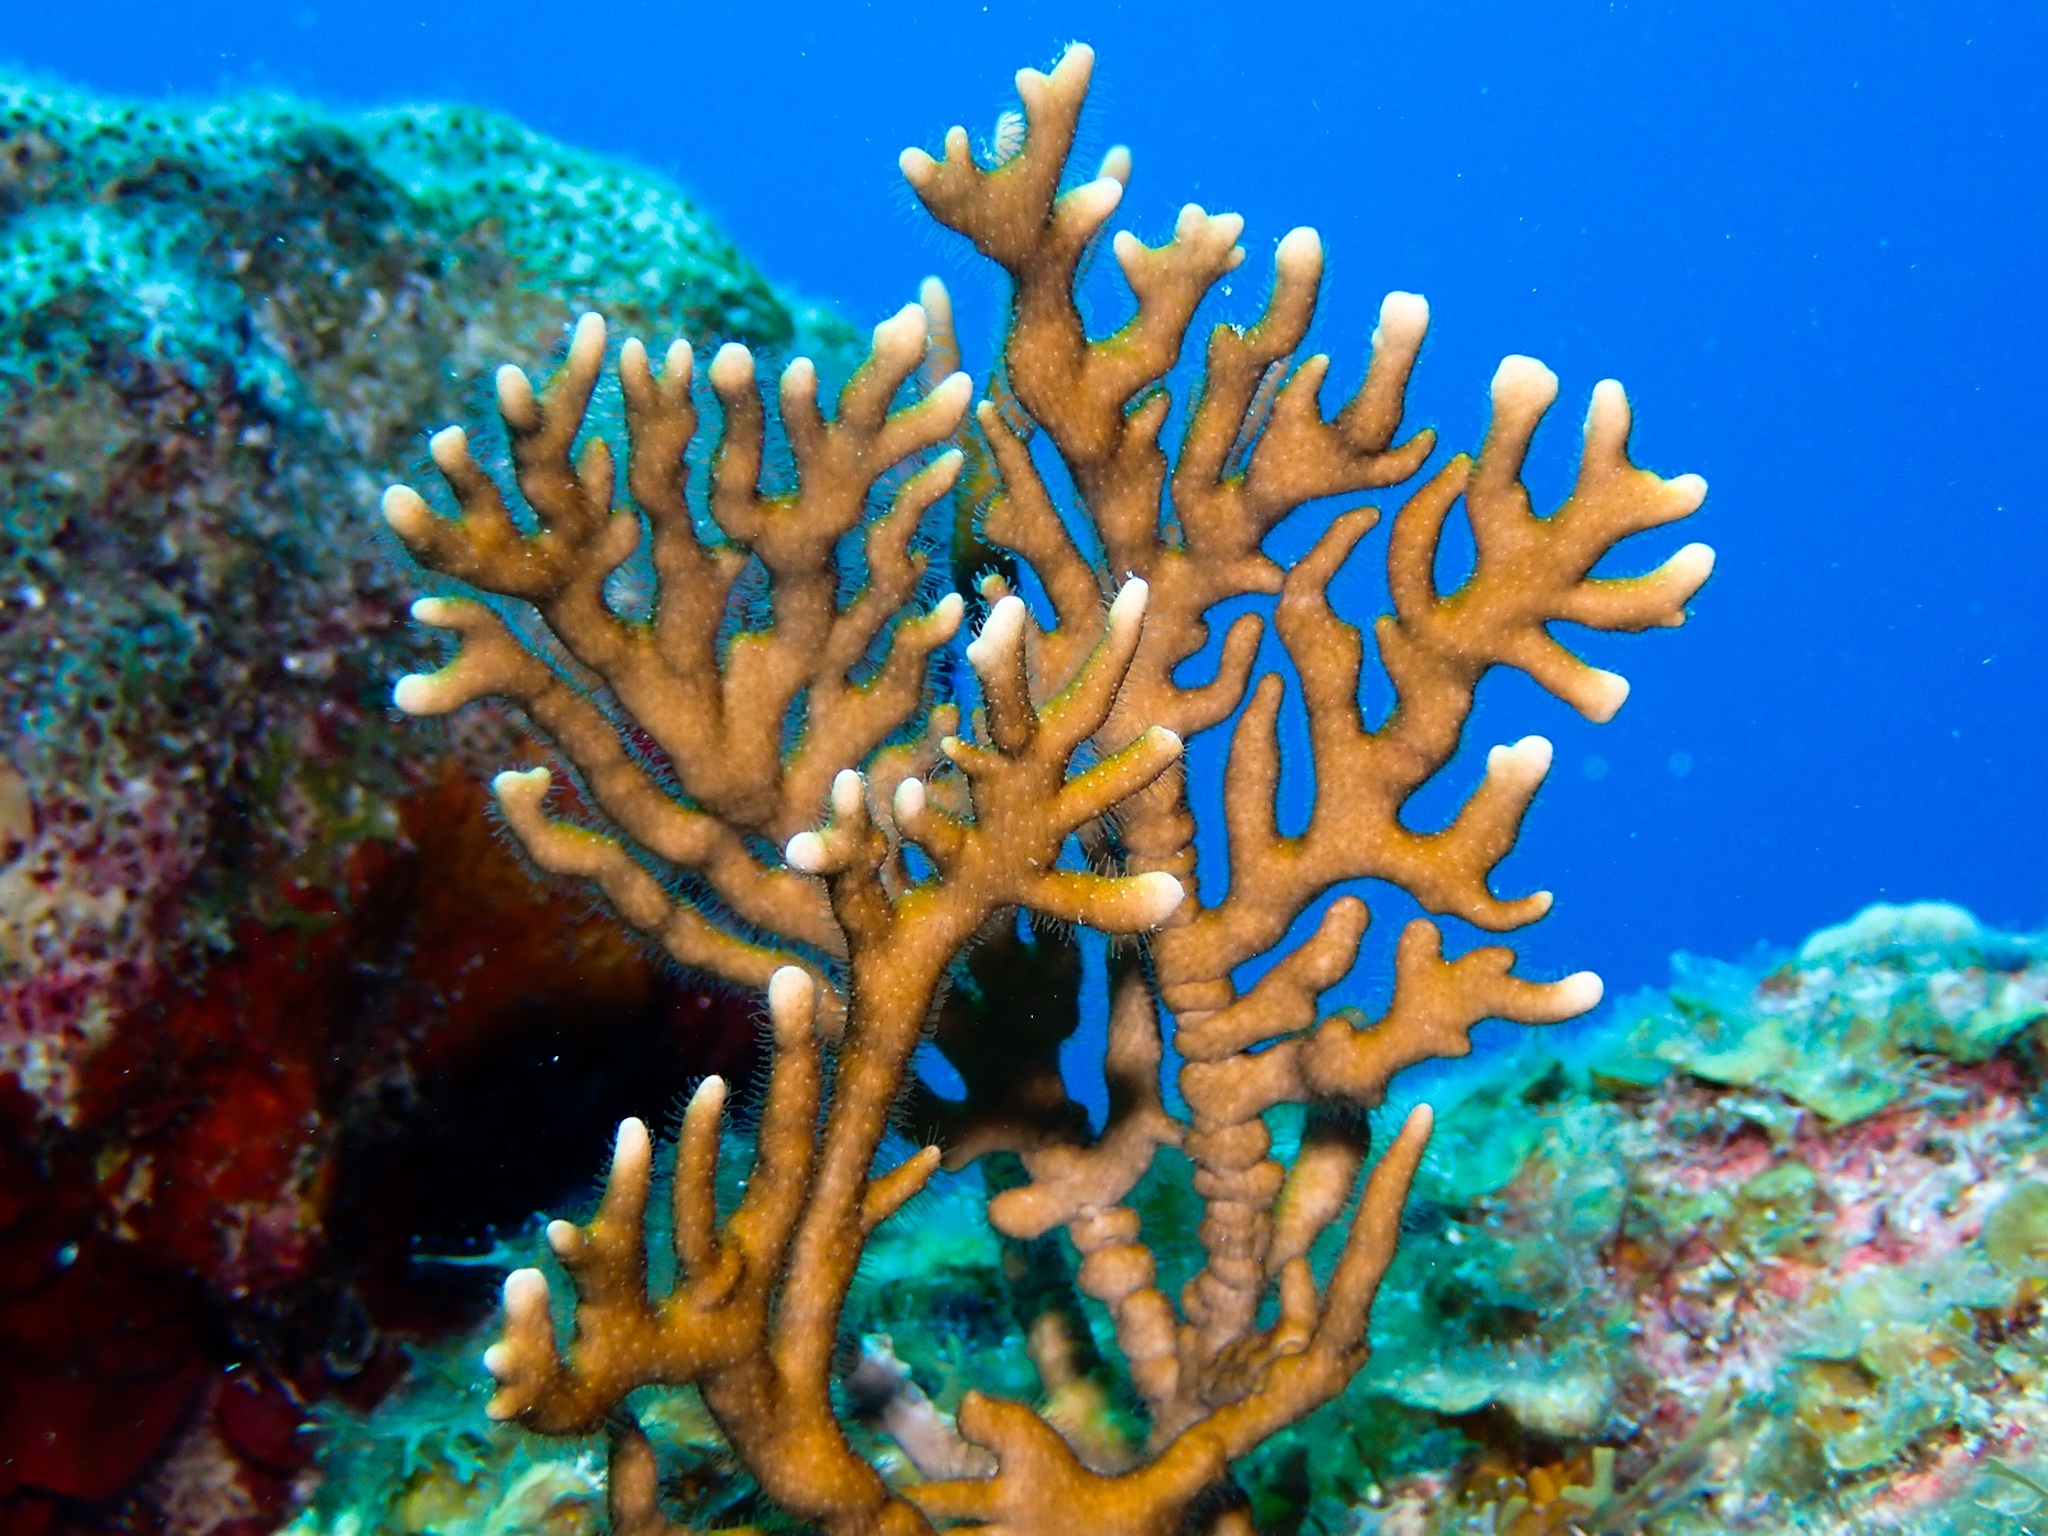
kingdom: Animalia
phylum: Cnidaria
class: Hydrozoa
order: Anthoathecata
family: Milleporidae
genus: Millepora
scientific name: Millepora alcicornis
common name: Branching fire coral
